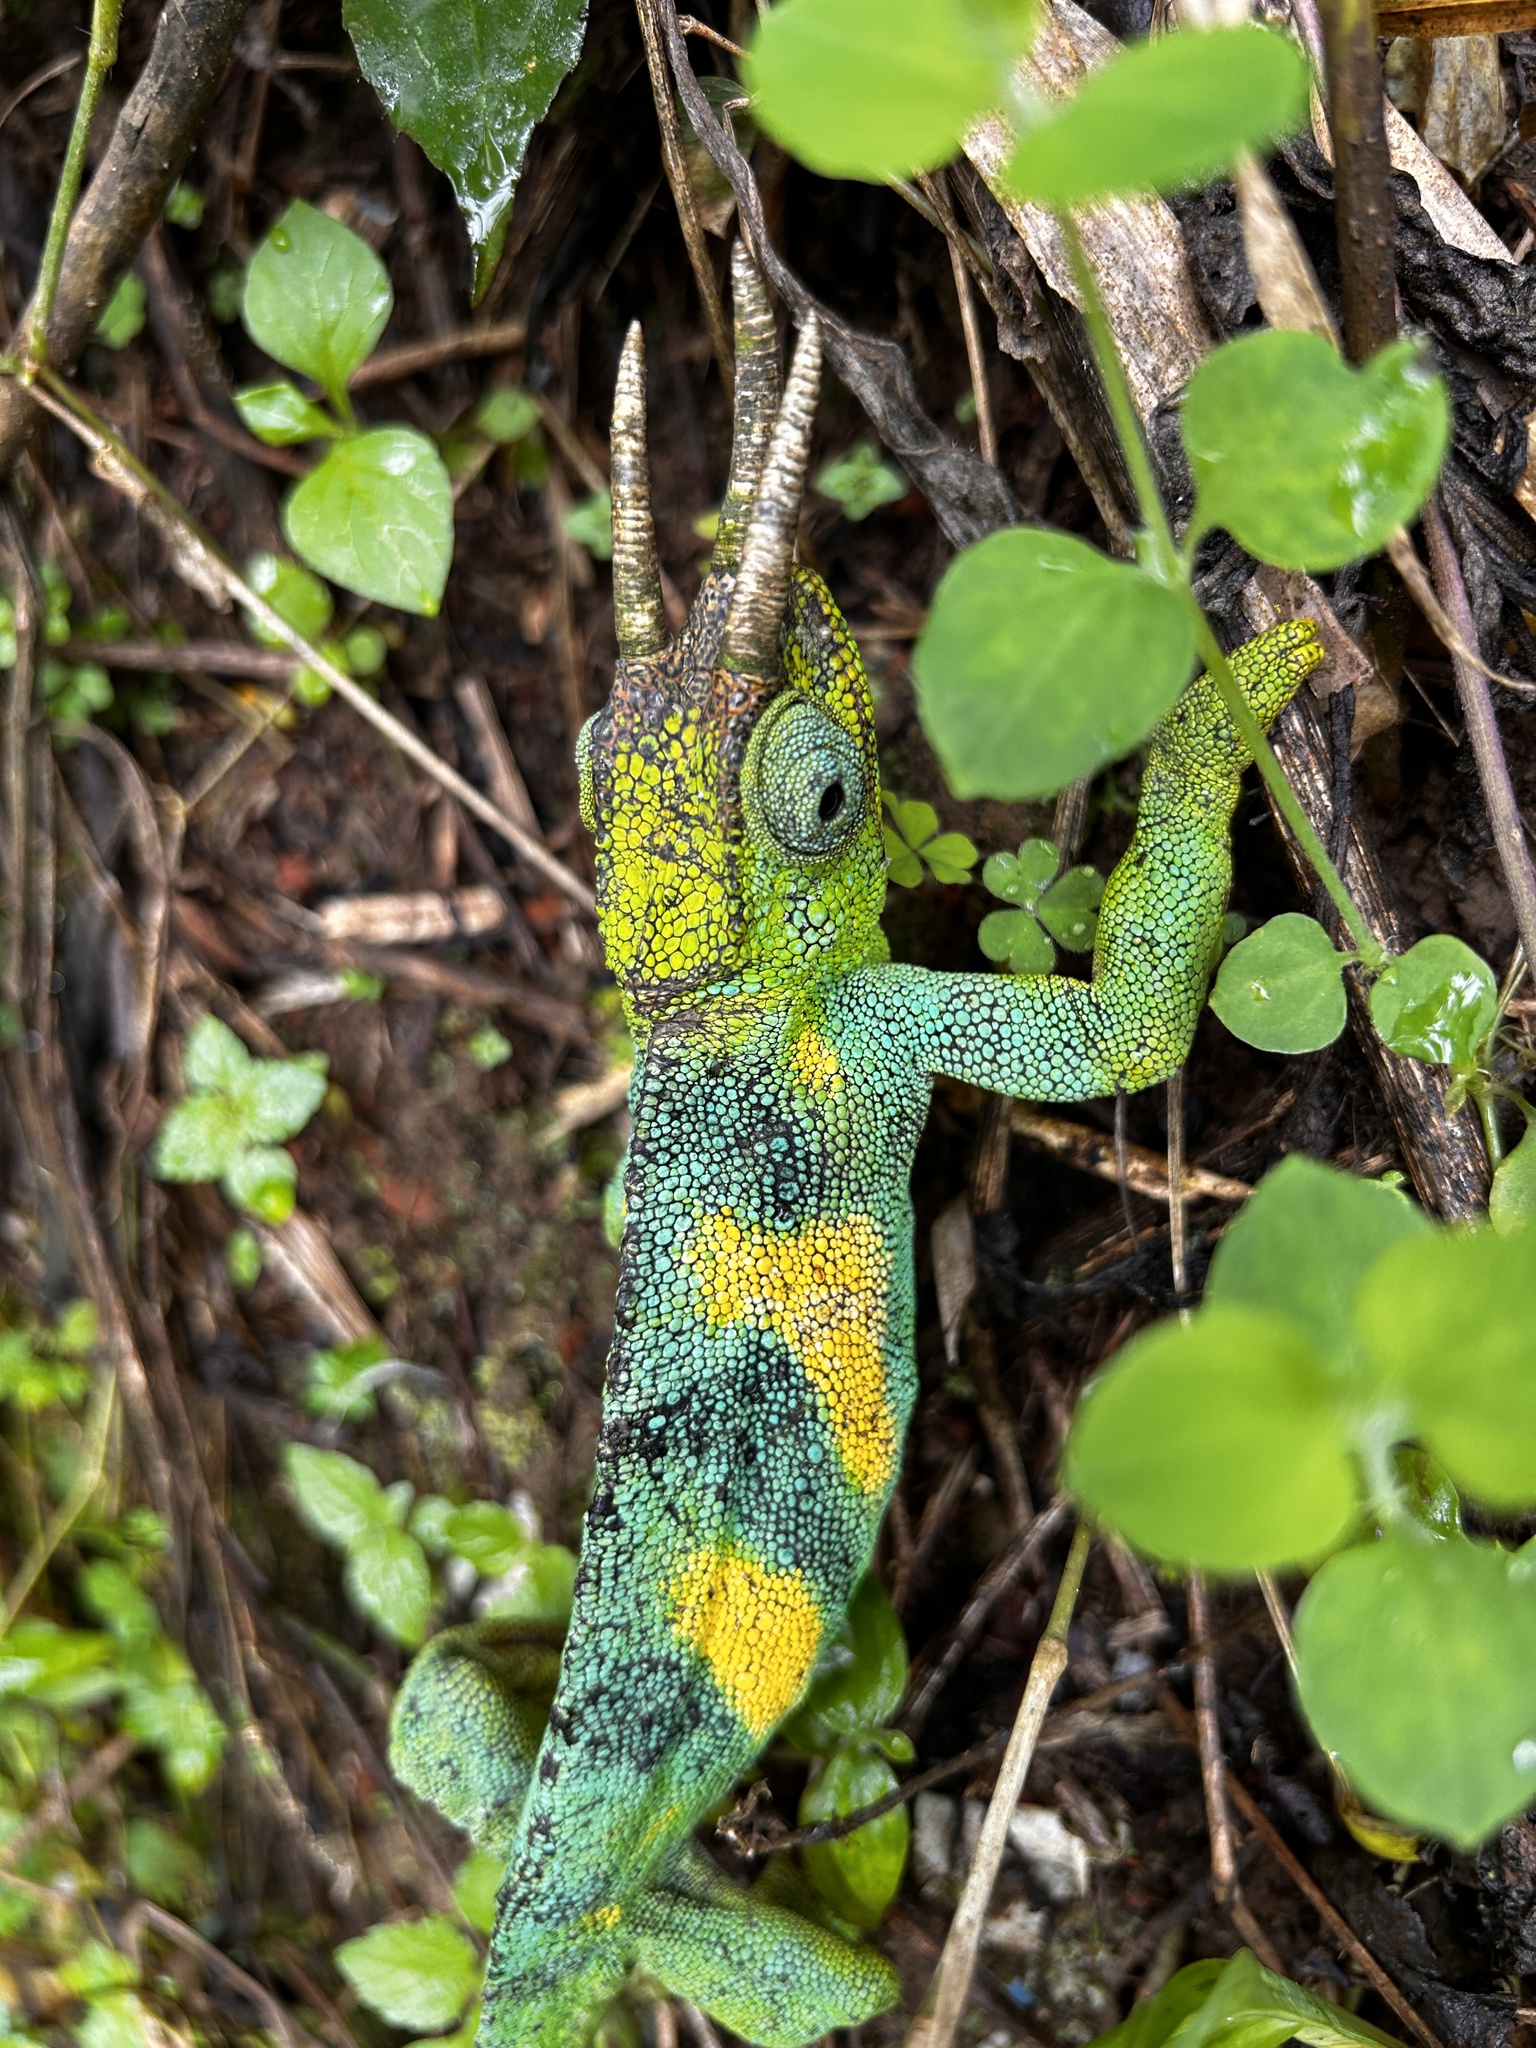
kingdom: Animalia
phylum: Chordata
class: Squamata
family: Chamaeleonidae
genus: Trioceros
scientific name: Trioceros johnstoni
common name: Johnston's chameleon
